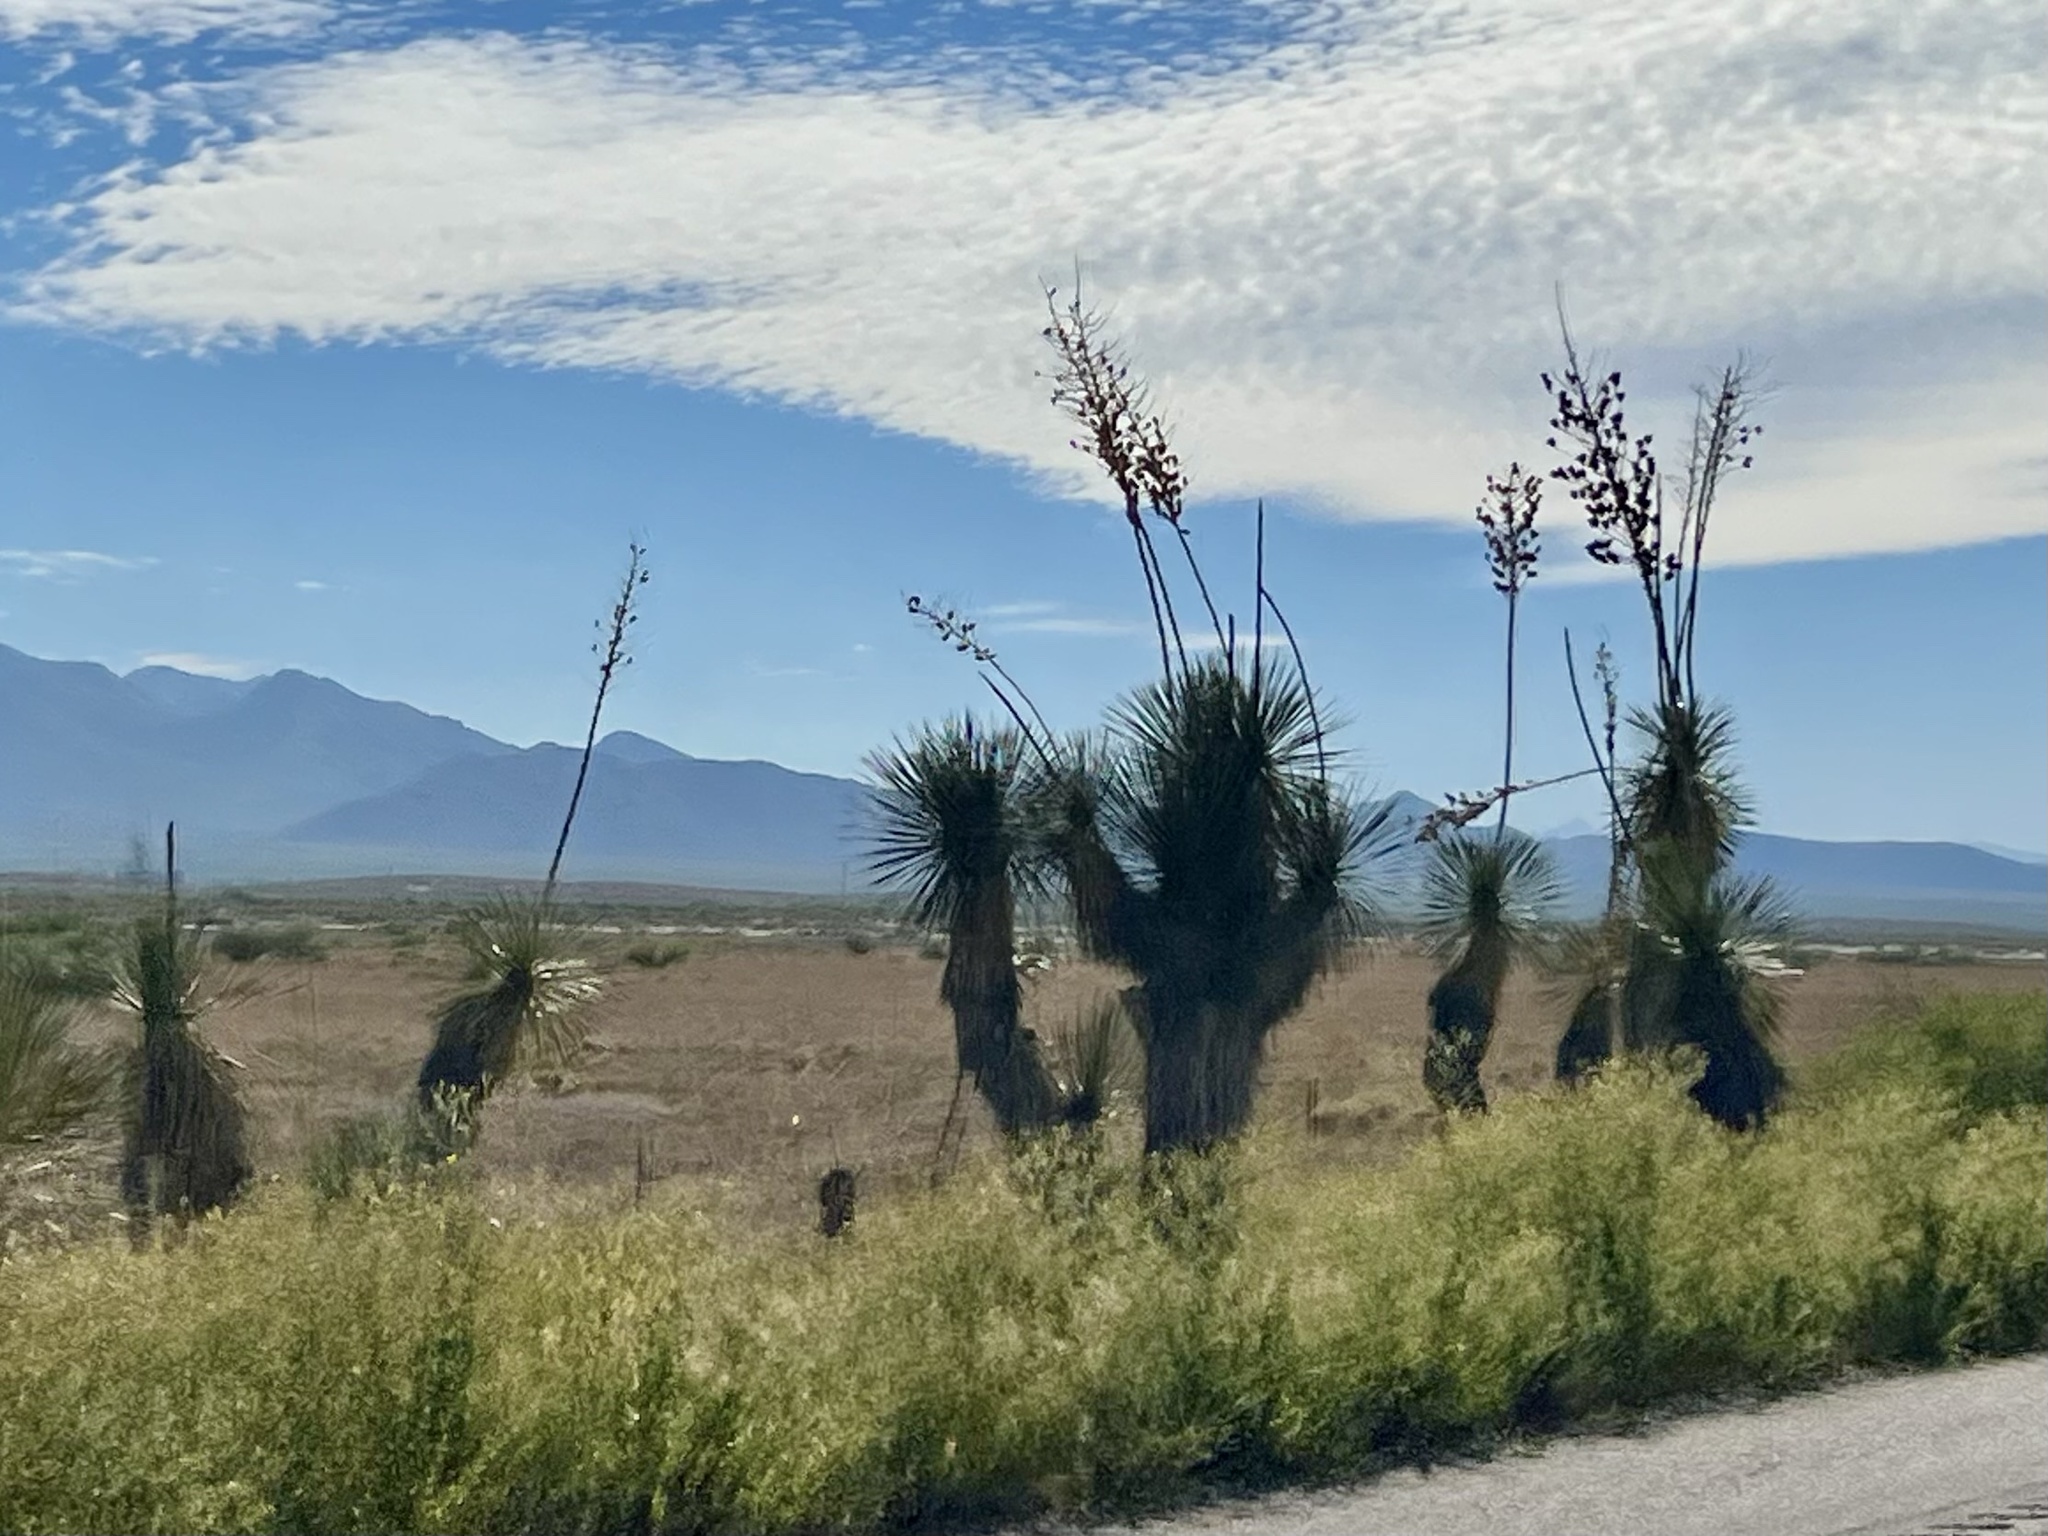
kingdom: Plantae
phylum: Tracheophyta
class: Liliopsida
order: Asparagales
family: Asparagaceae
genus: Yucca
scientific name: Yucca elata
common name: Palmella
